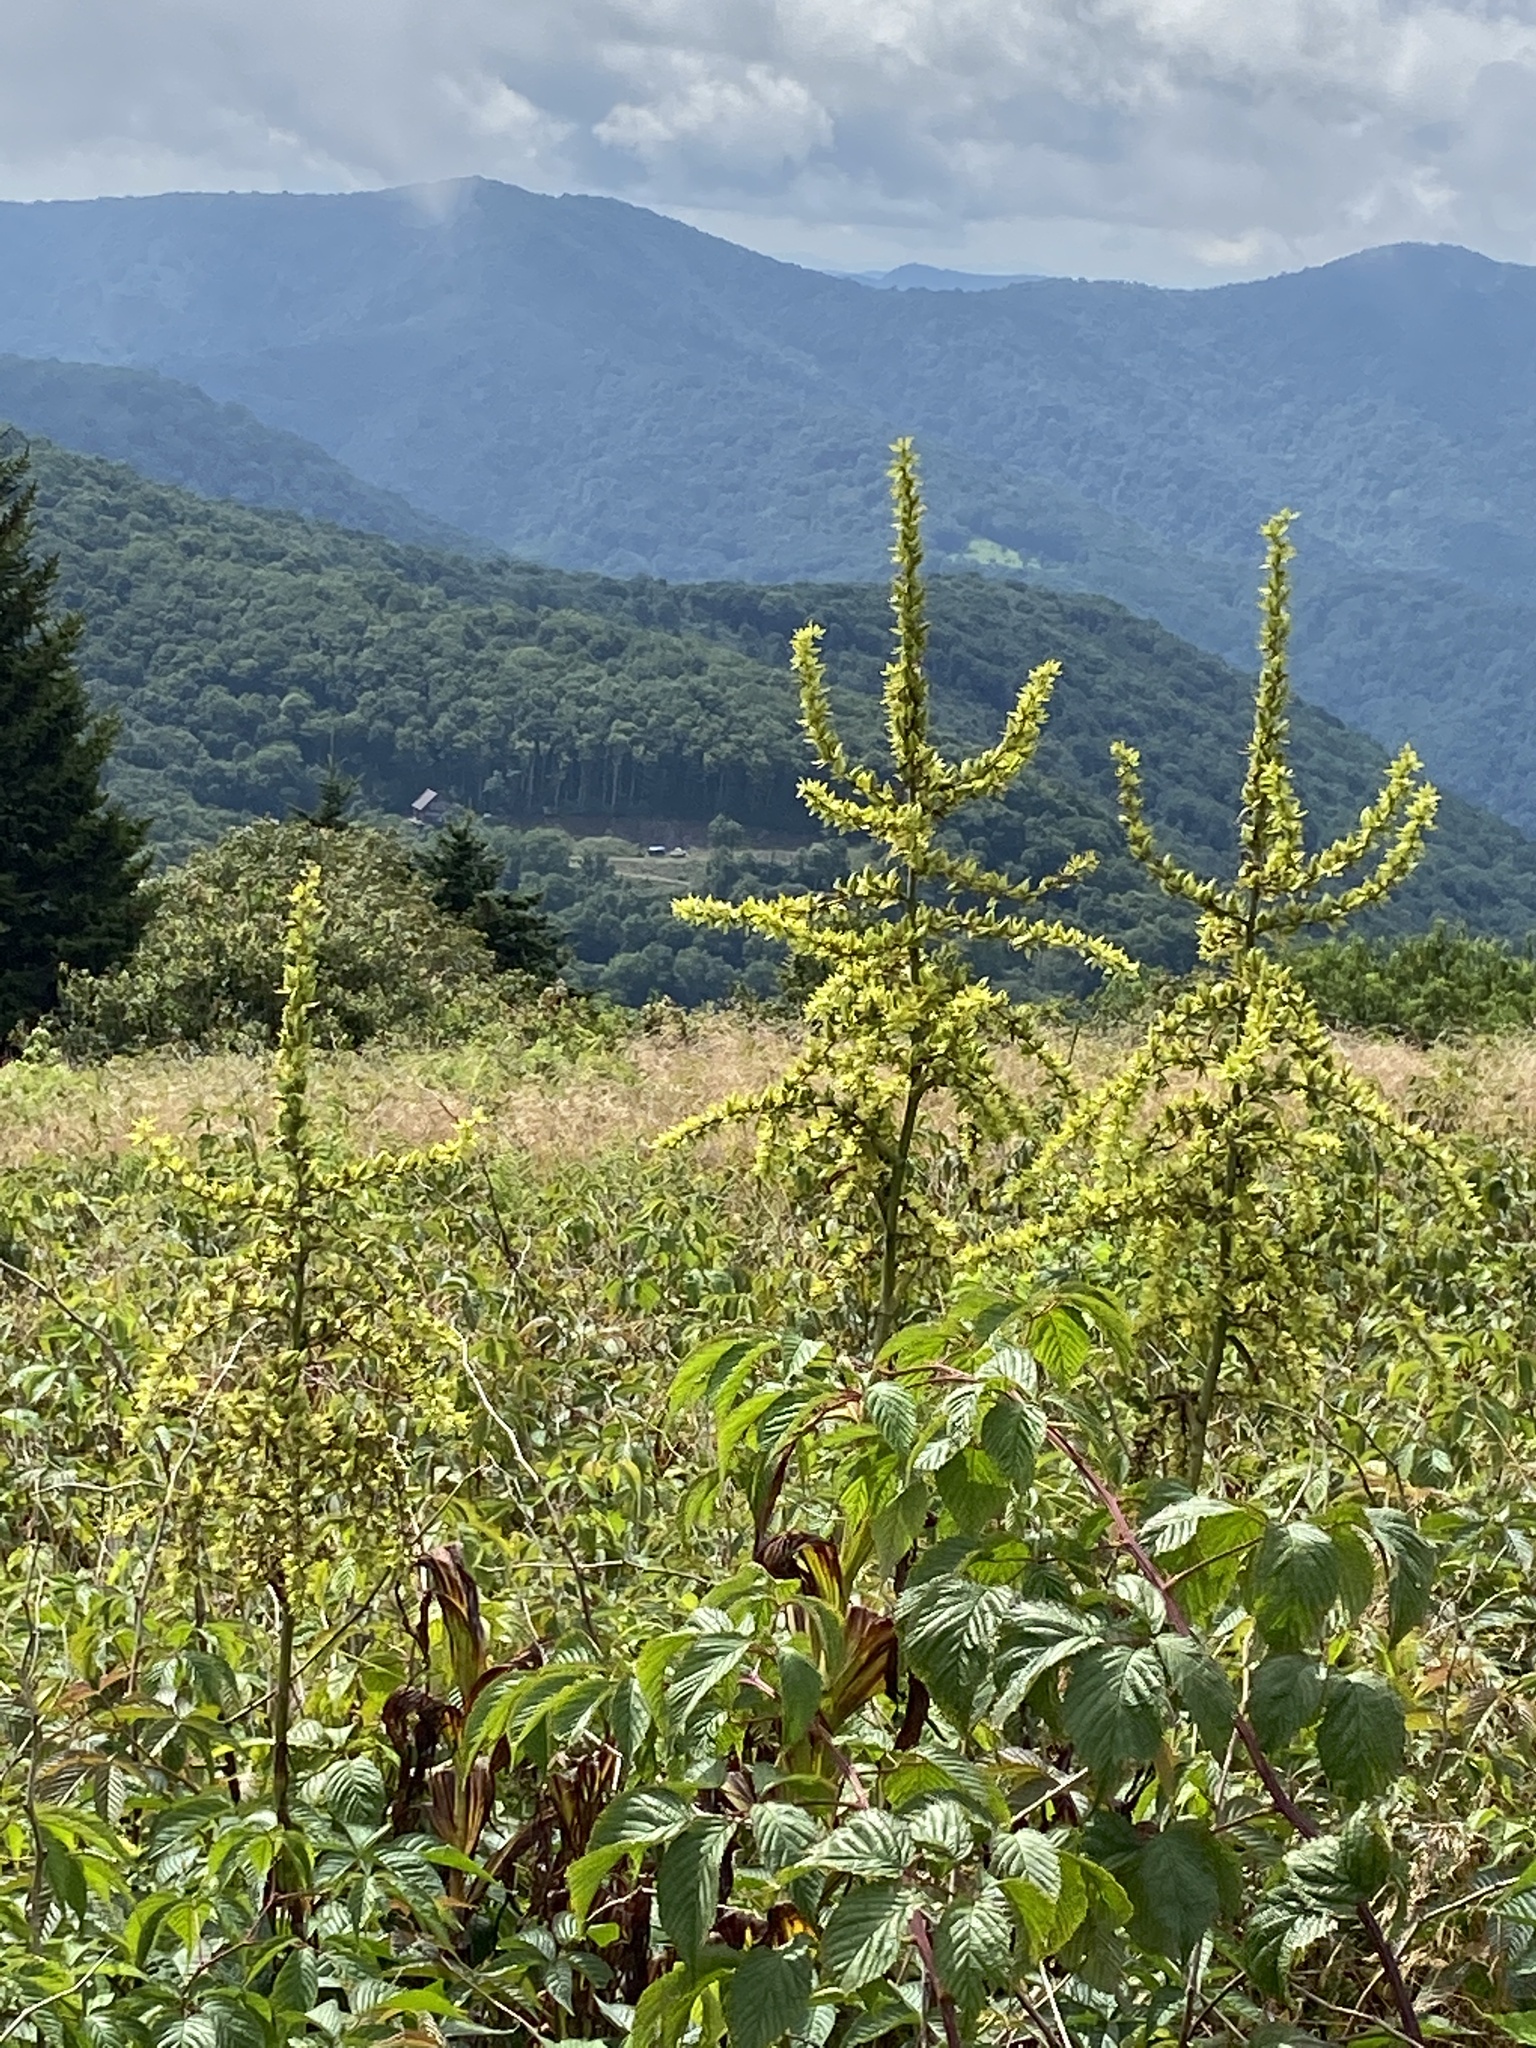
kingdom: Plantae
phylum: Tracheophyta
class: Liliopsida
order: Liliales
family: Melanthiaceae
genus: Veratrum
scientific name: Veratrum viride
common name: American false hellebore
